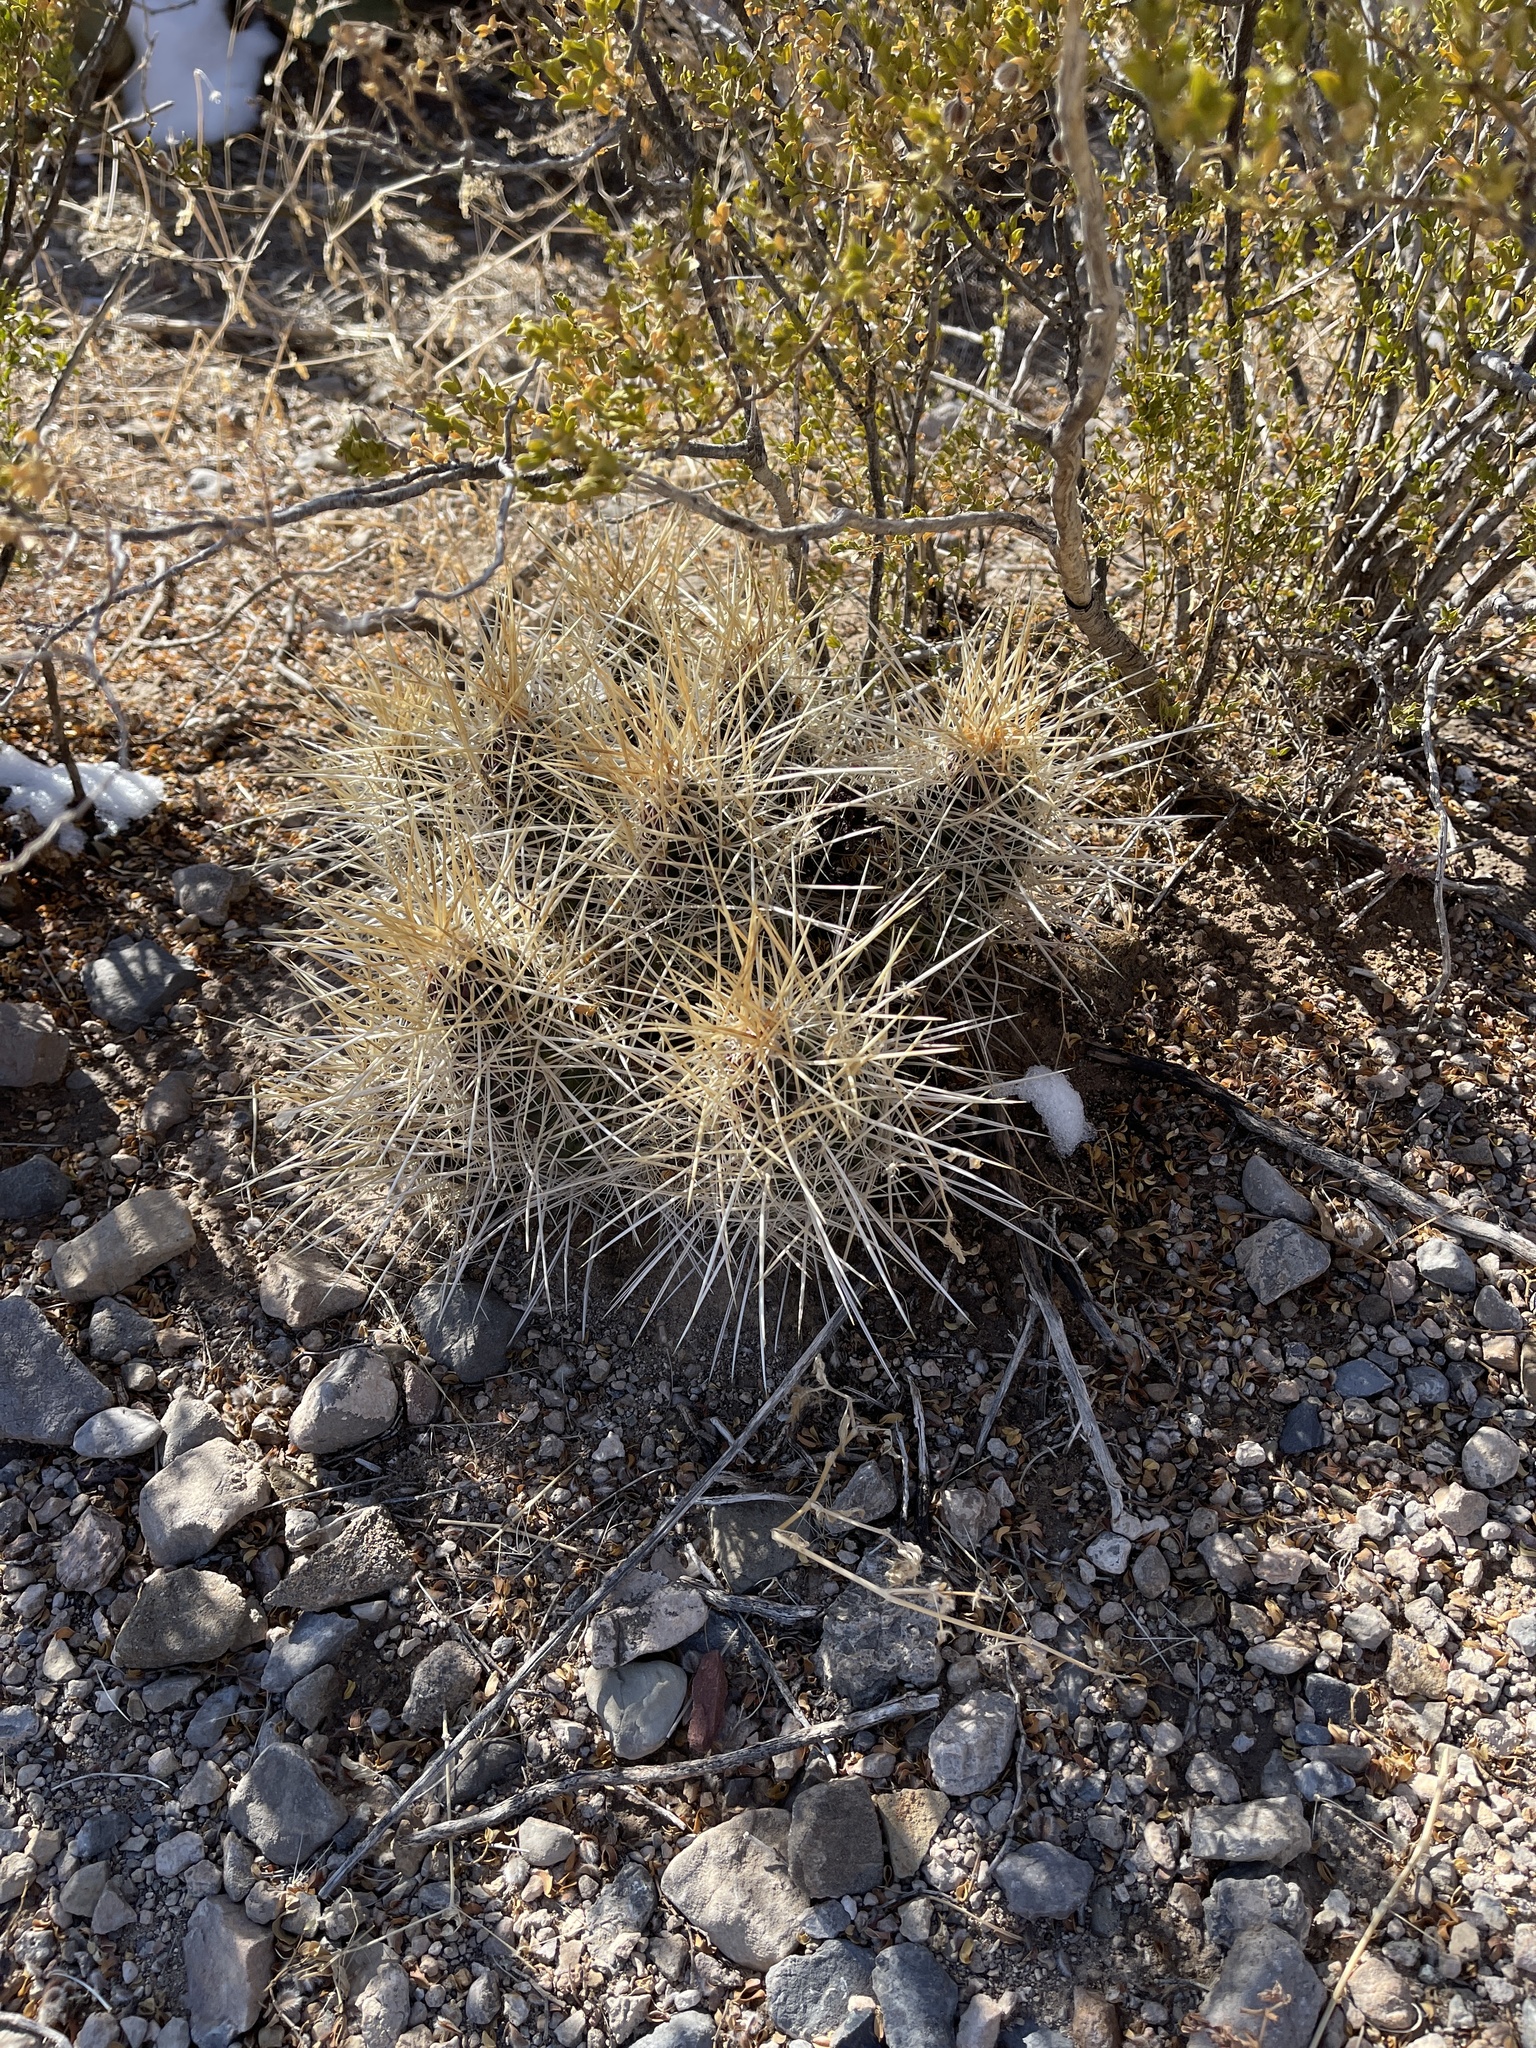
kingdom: Plantae
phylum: Tracheophyta
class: Magnoliopsida
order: Caryophyllales
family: Cactaceae
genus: Echinocereus
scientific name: Echinocereus stramineus
